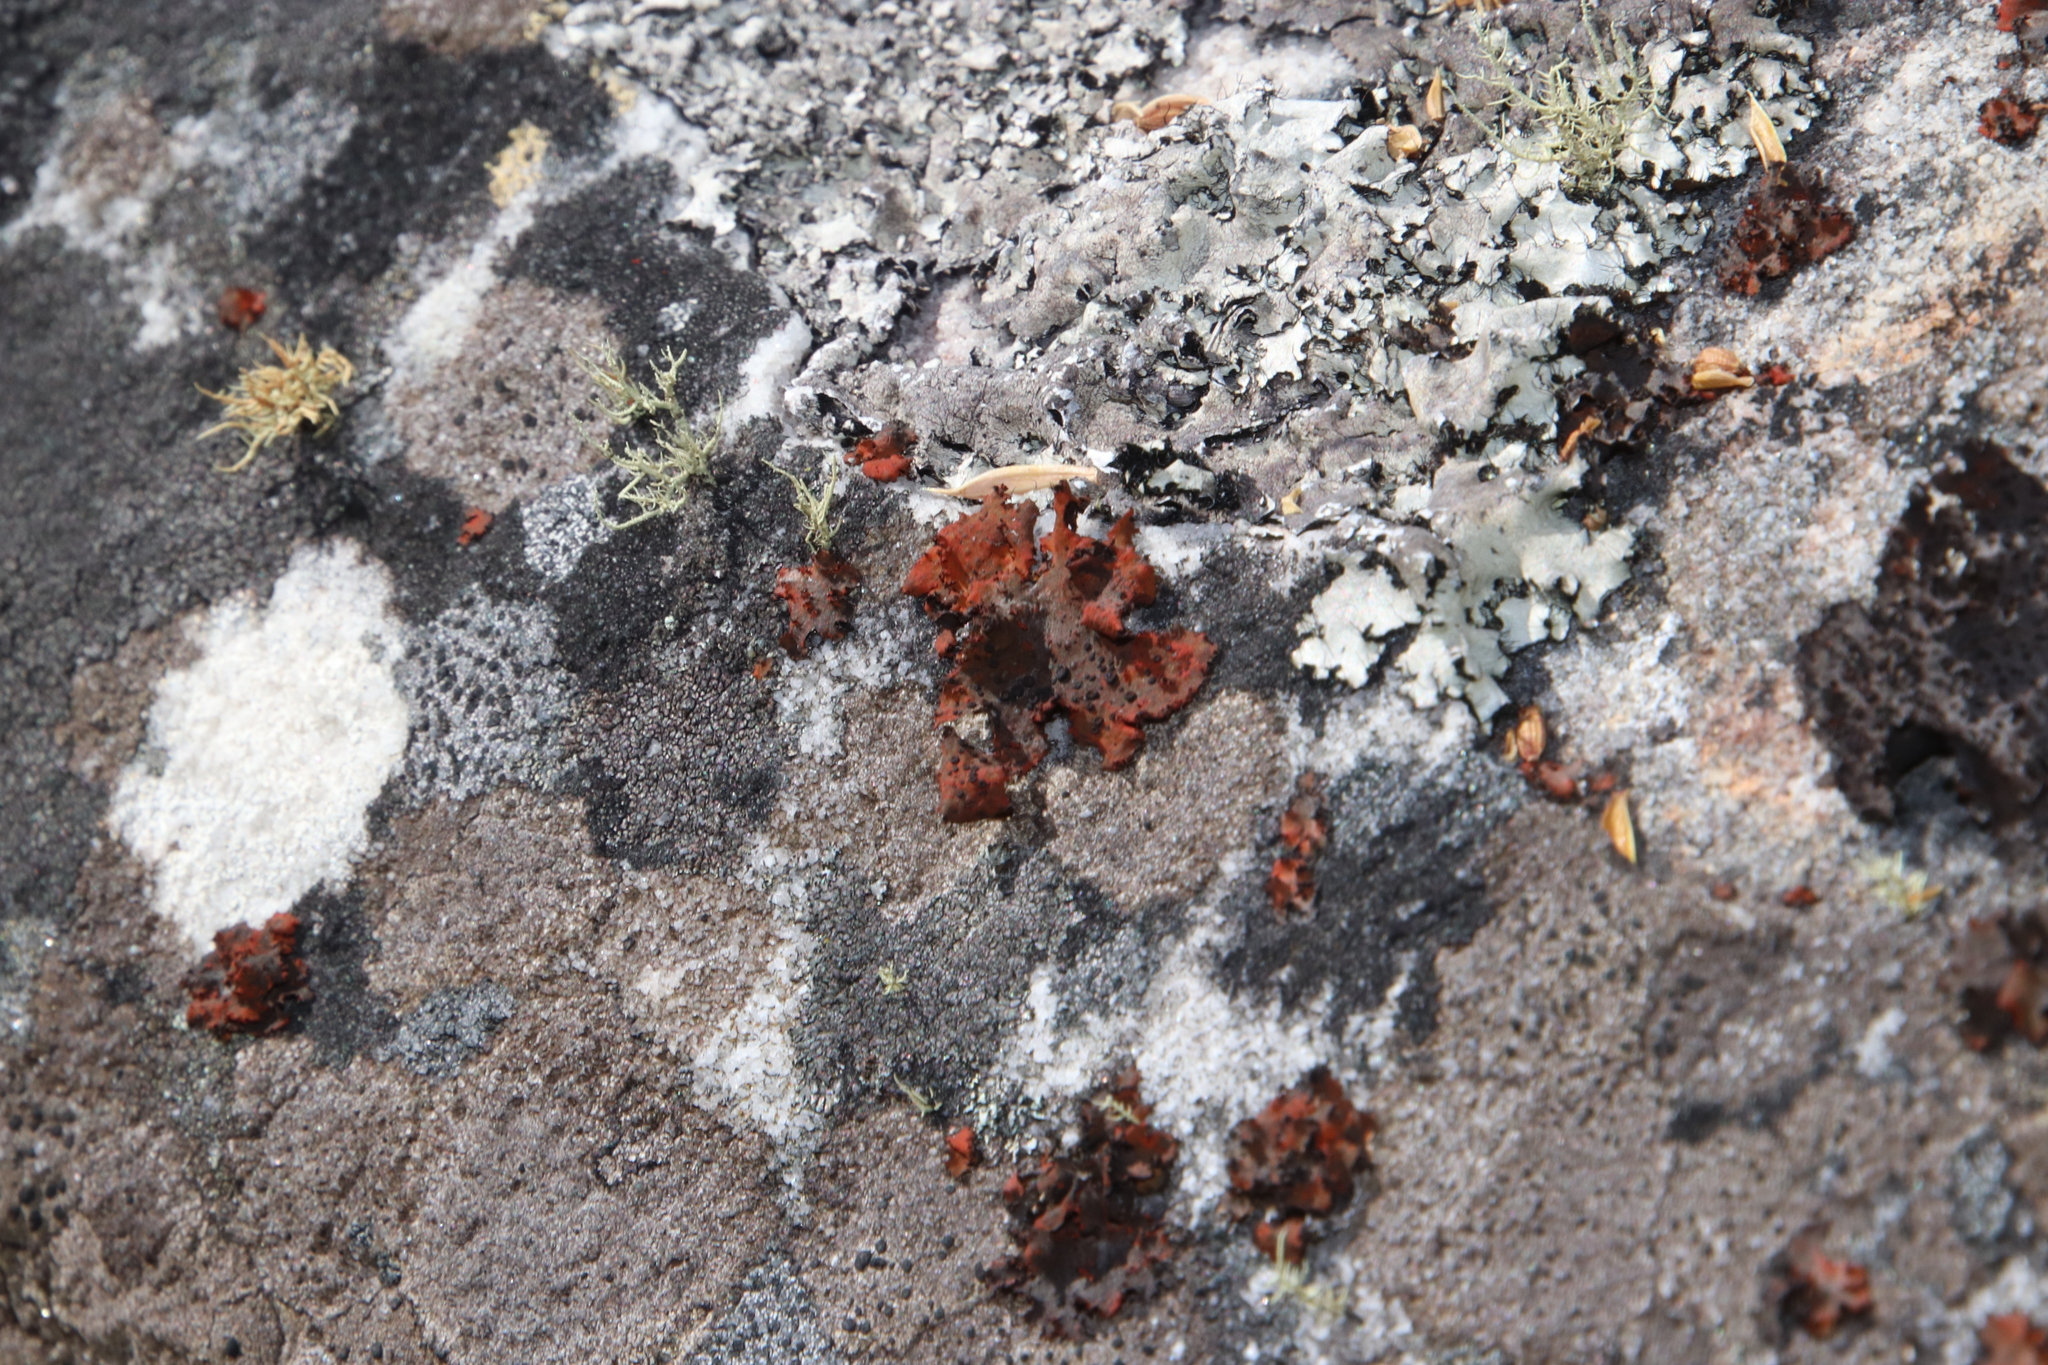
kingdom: Fungi
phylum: Ascomycota
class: Lecanoromycetes
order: Umbilicariales
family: Umbilicariaceae
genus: Lasallia
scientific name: Lasallia rubiginosa
